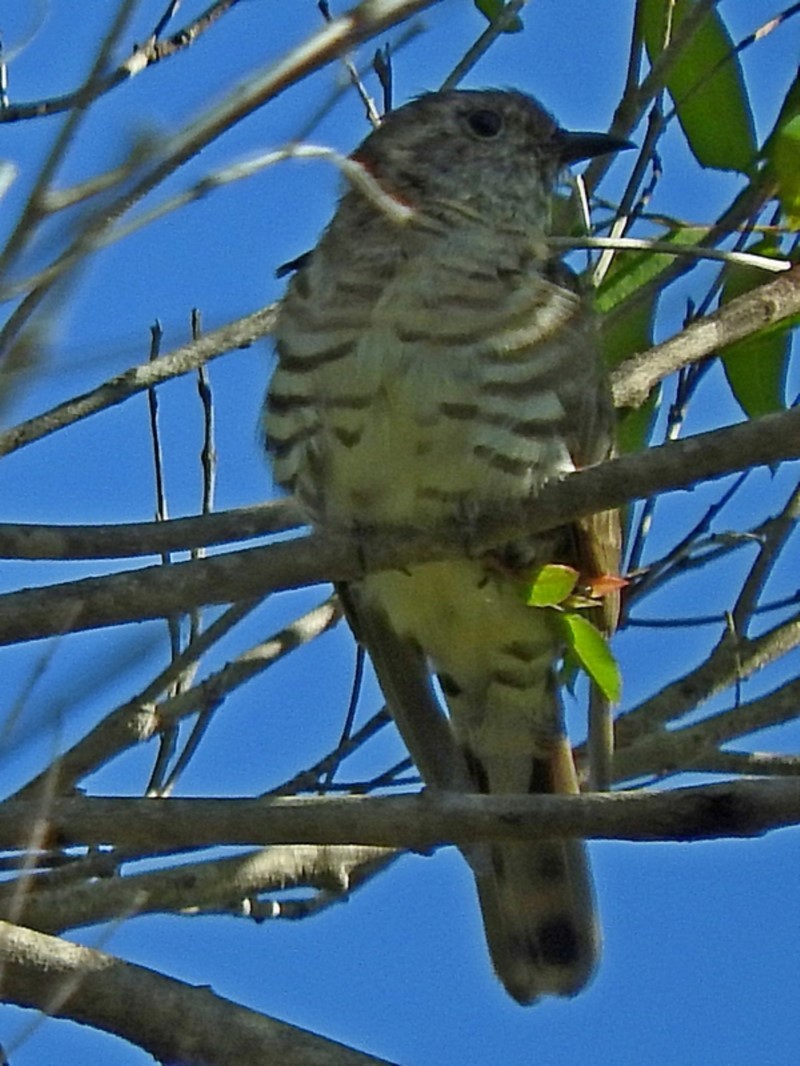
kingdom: Animalia
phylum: Chordata
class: Aves
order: Cuculiformes
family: Cuculidae
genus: Chrysococcyx
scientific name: Chrysococcyx lucidus
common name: Shining bronze cuckoo
